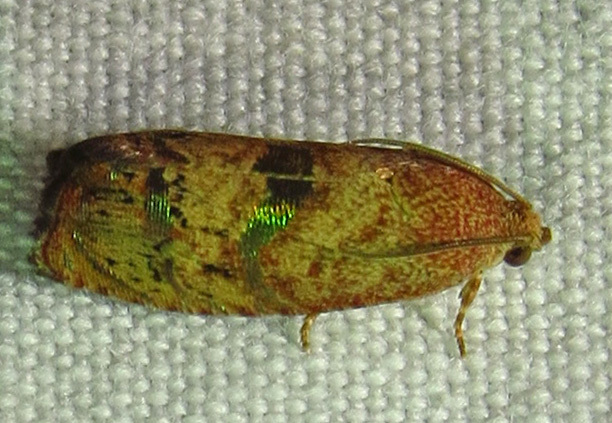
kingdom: Animalia
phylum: Arthropoda
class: Insecta
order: Lepidoptera
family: Tortricidae
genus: Cydia
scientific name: Cydia latiferreana
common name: Filbertworm moth
